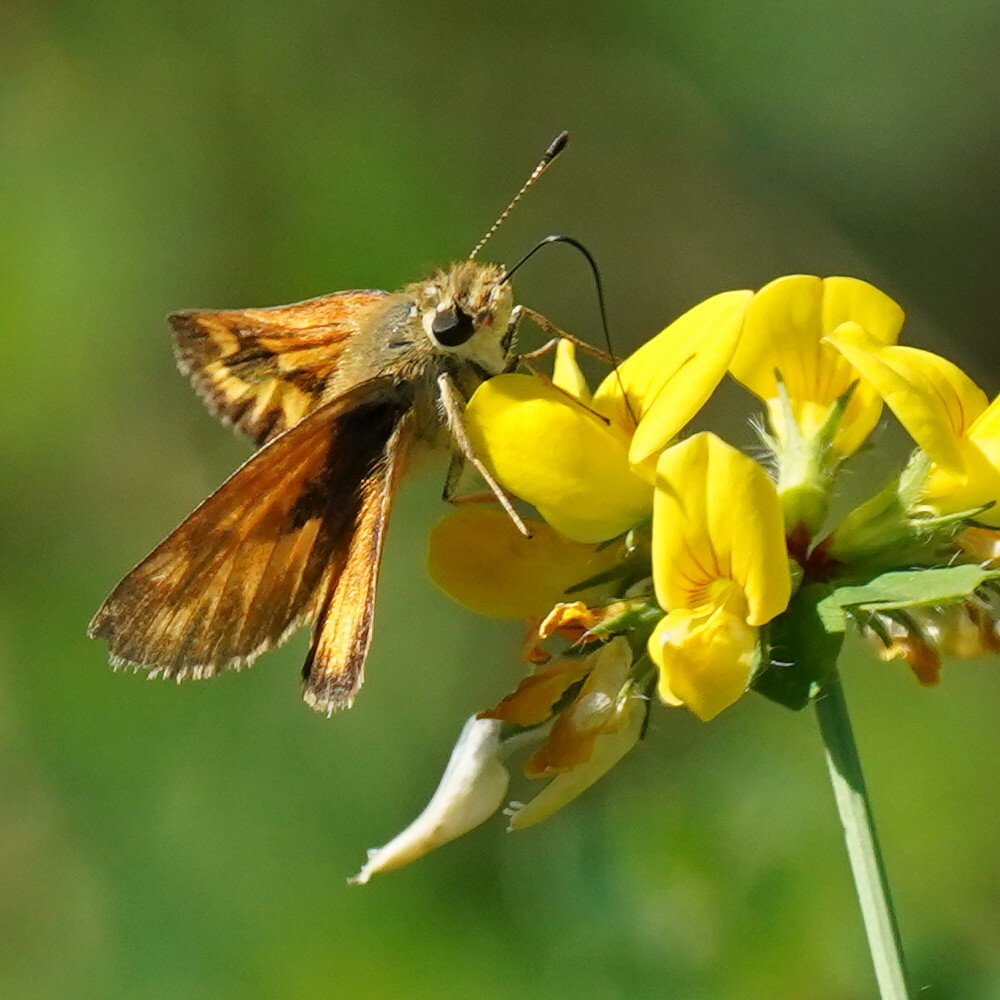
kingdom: Animalia
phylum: Arthropoda
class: Insecta
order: Lepidoptera
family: Hesperiidae
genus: Ochlodes
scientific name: Ochlodes sylvanoides
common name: Woodland skipper
